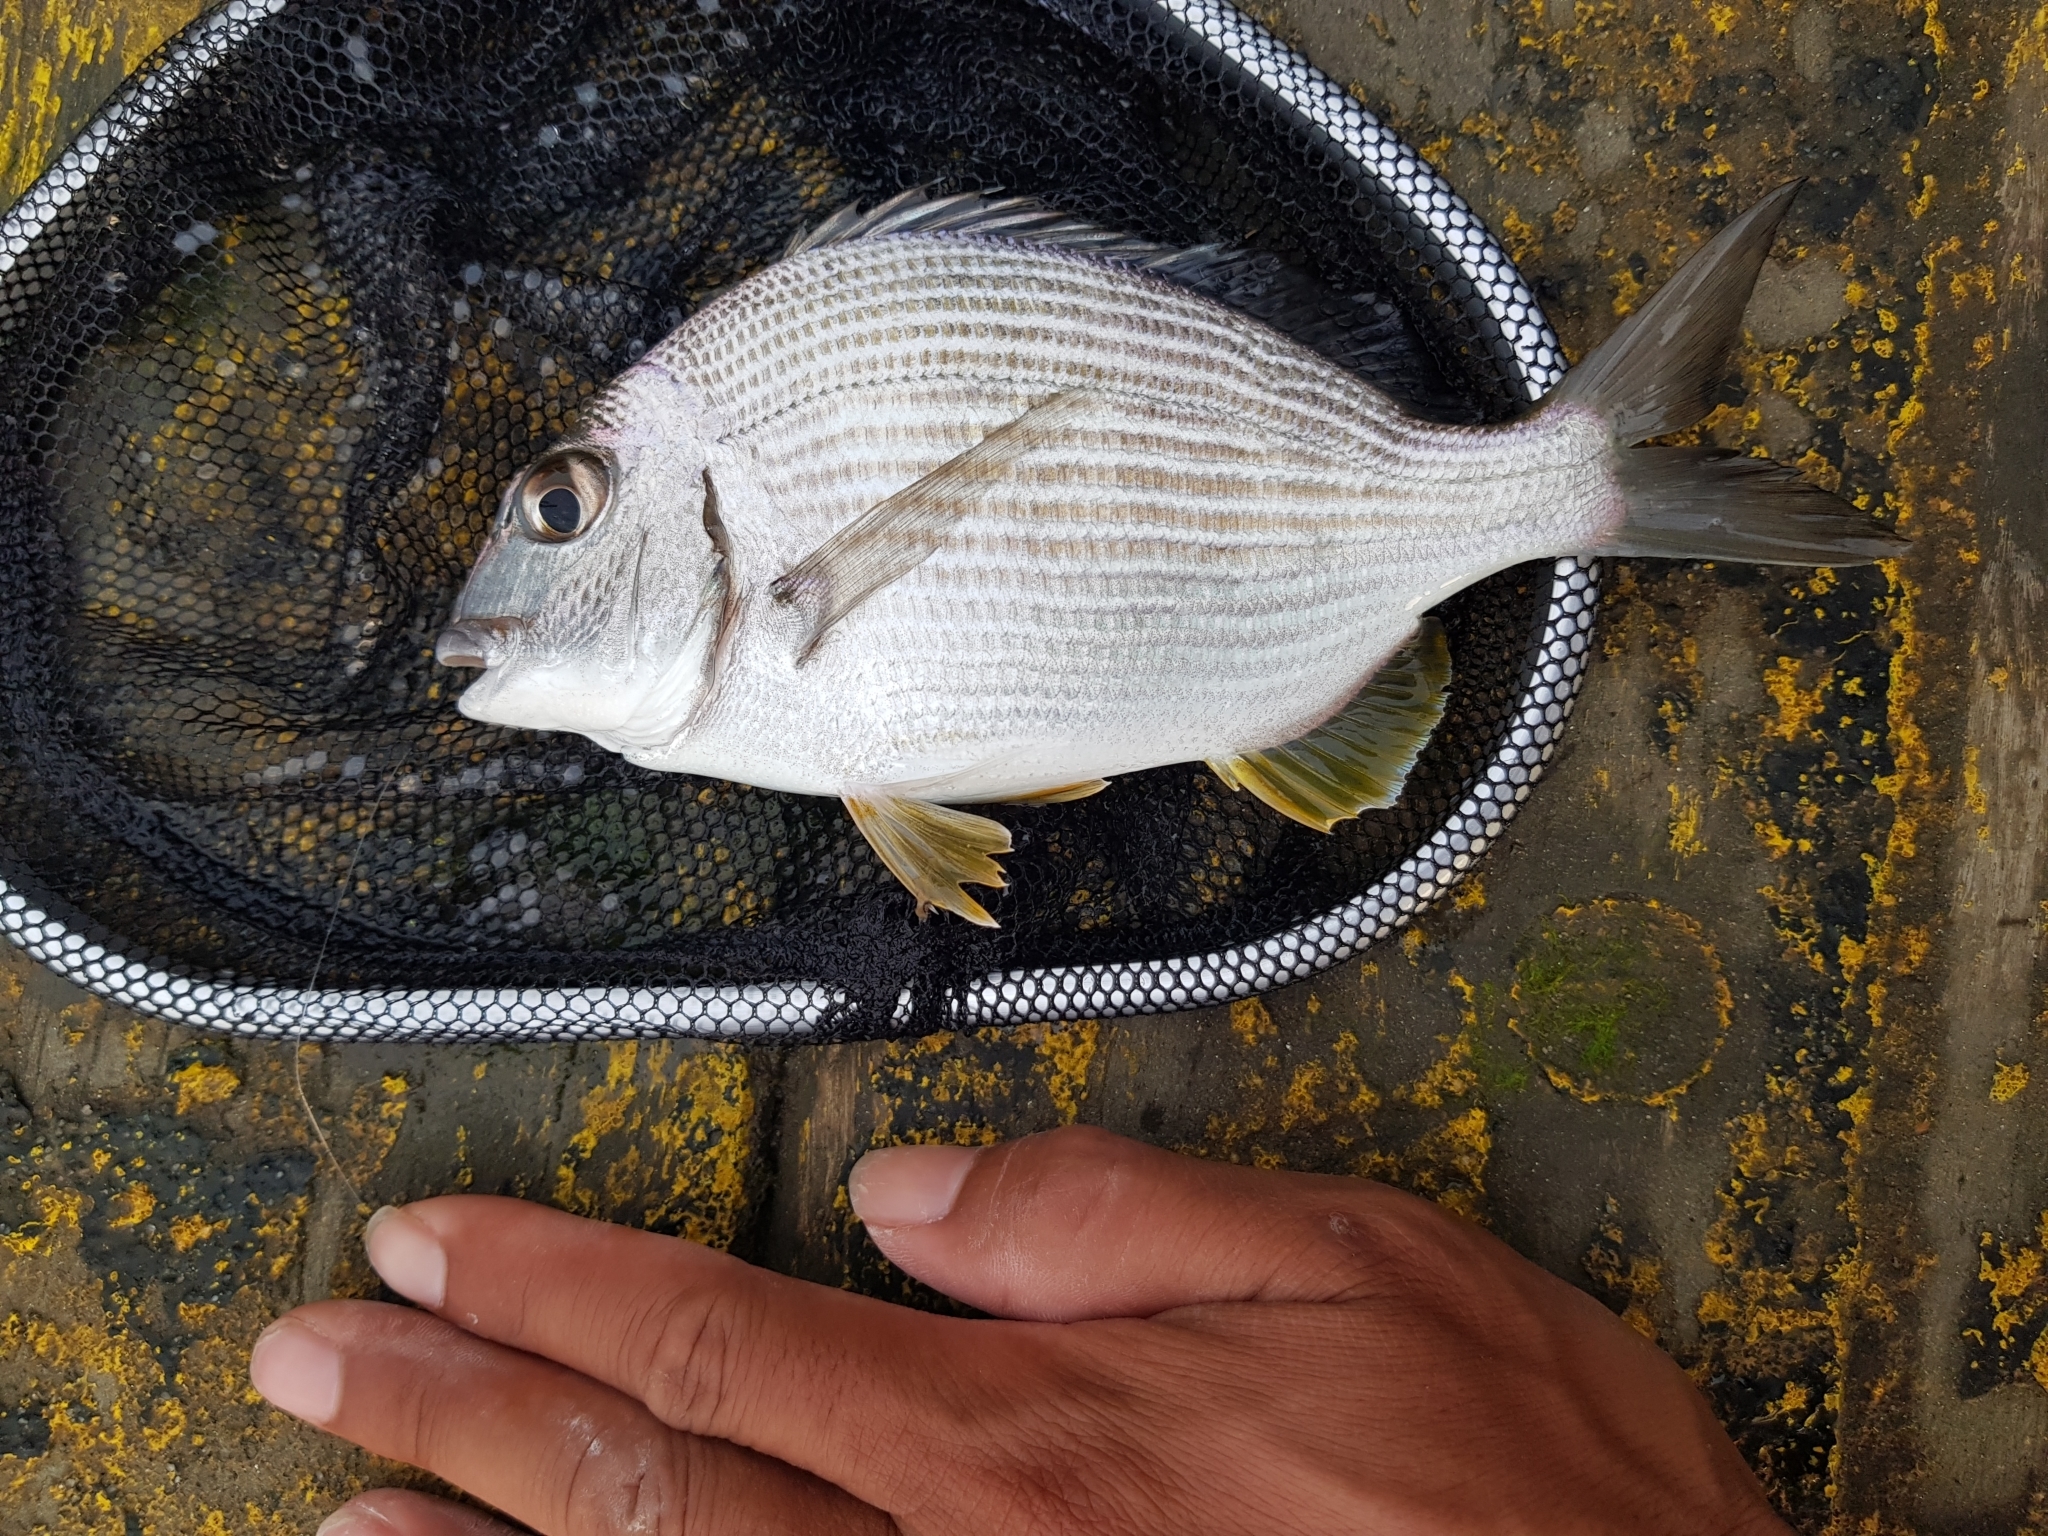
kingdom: Animalia
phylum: Chordata
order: Perciformes
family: Sparidae
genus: Rhabdosargus
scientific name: Rhabdosargus sarba
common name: Goldlined seabream
